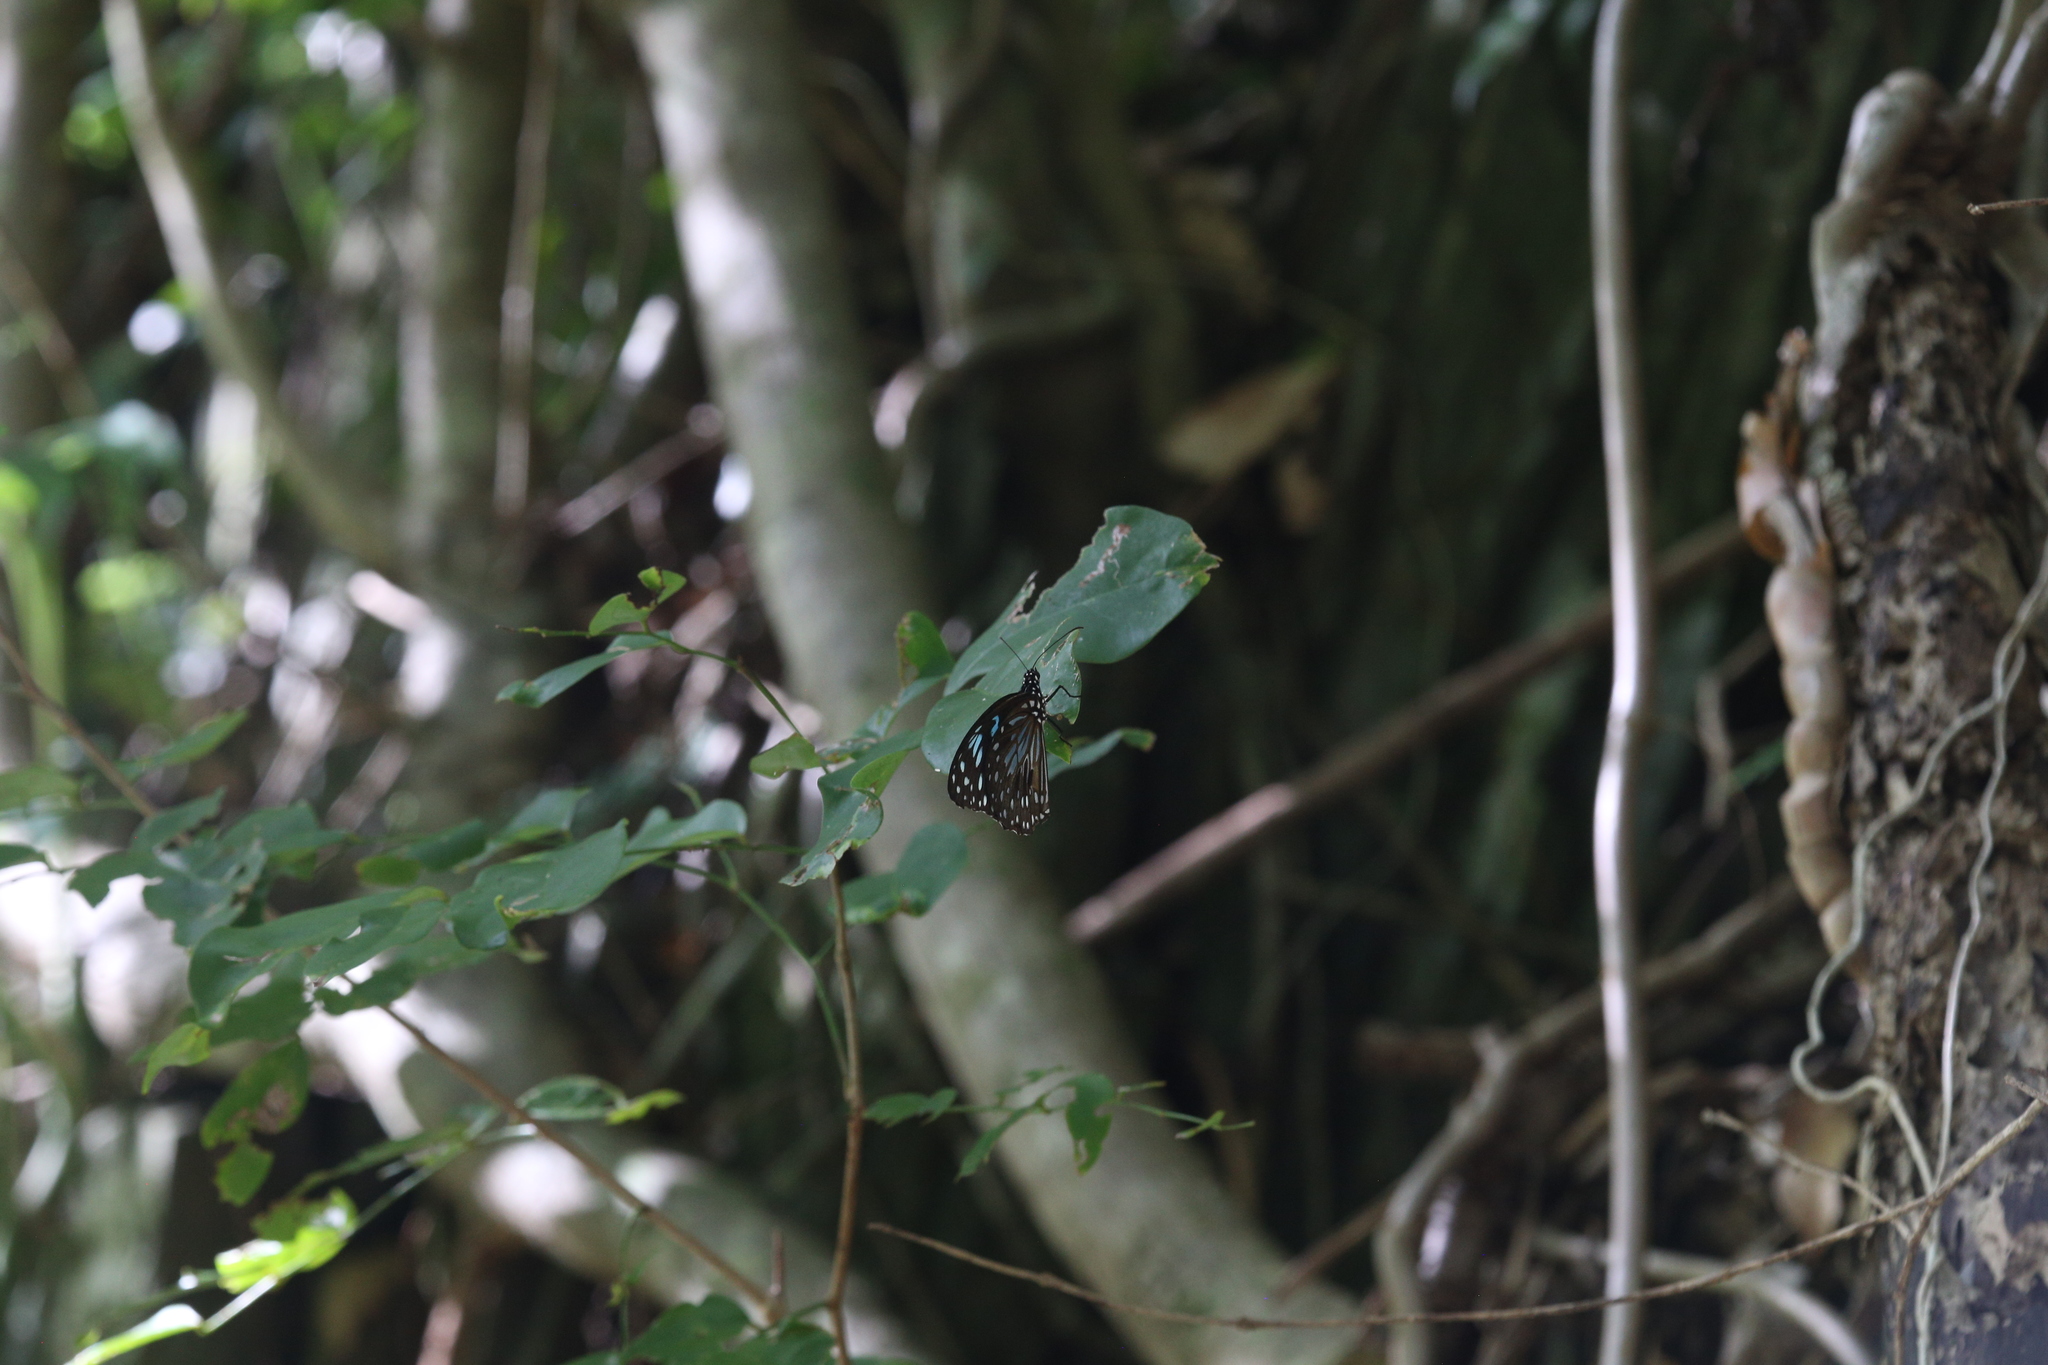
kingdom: Animalia
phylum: Arthropoda
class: Insecta
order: Lepidoptera
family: Nymphalidae
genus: Tirumala
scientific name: Tirumala hamata
